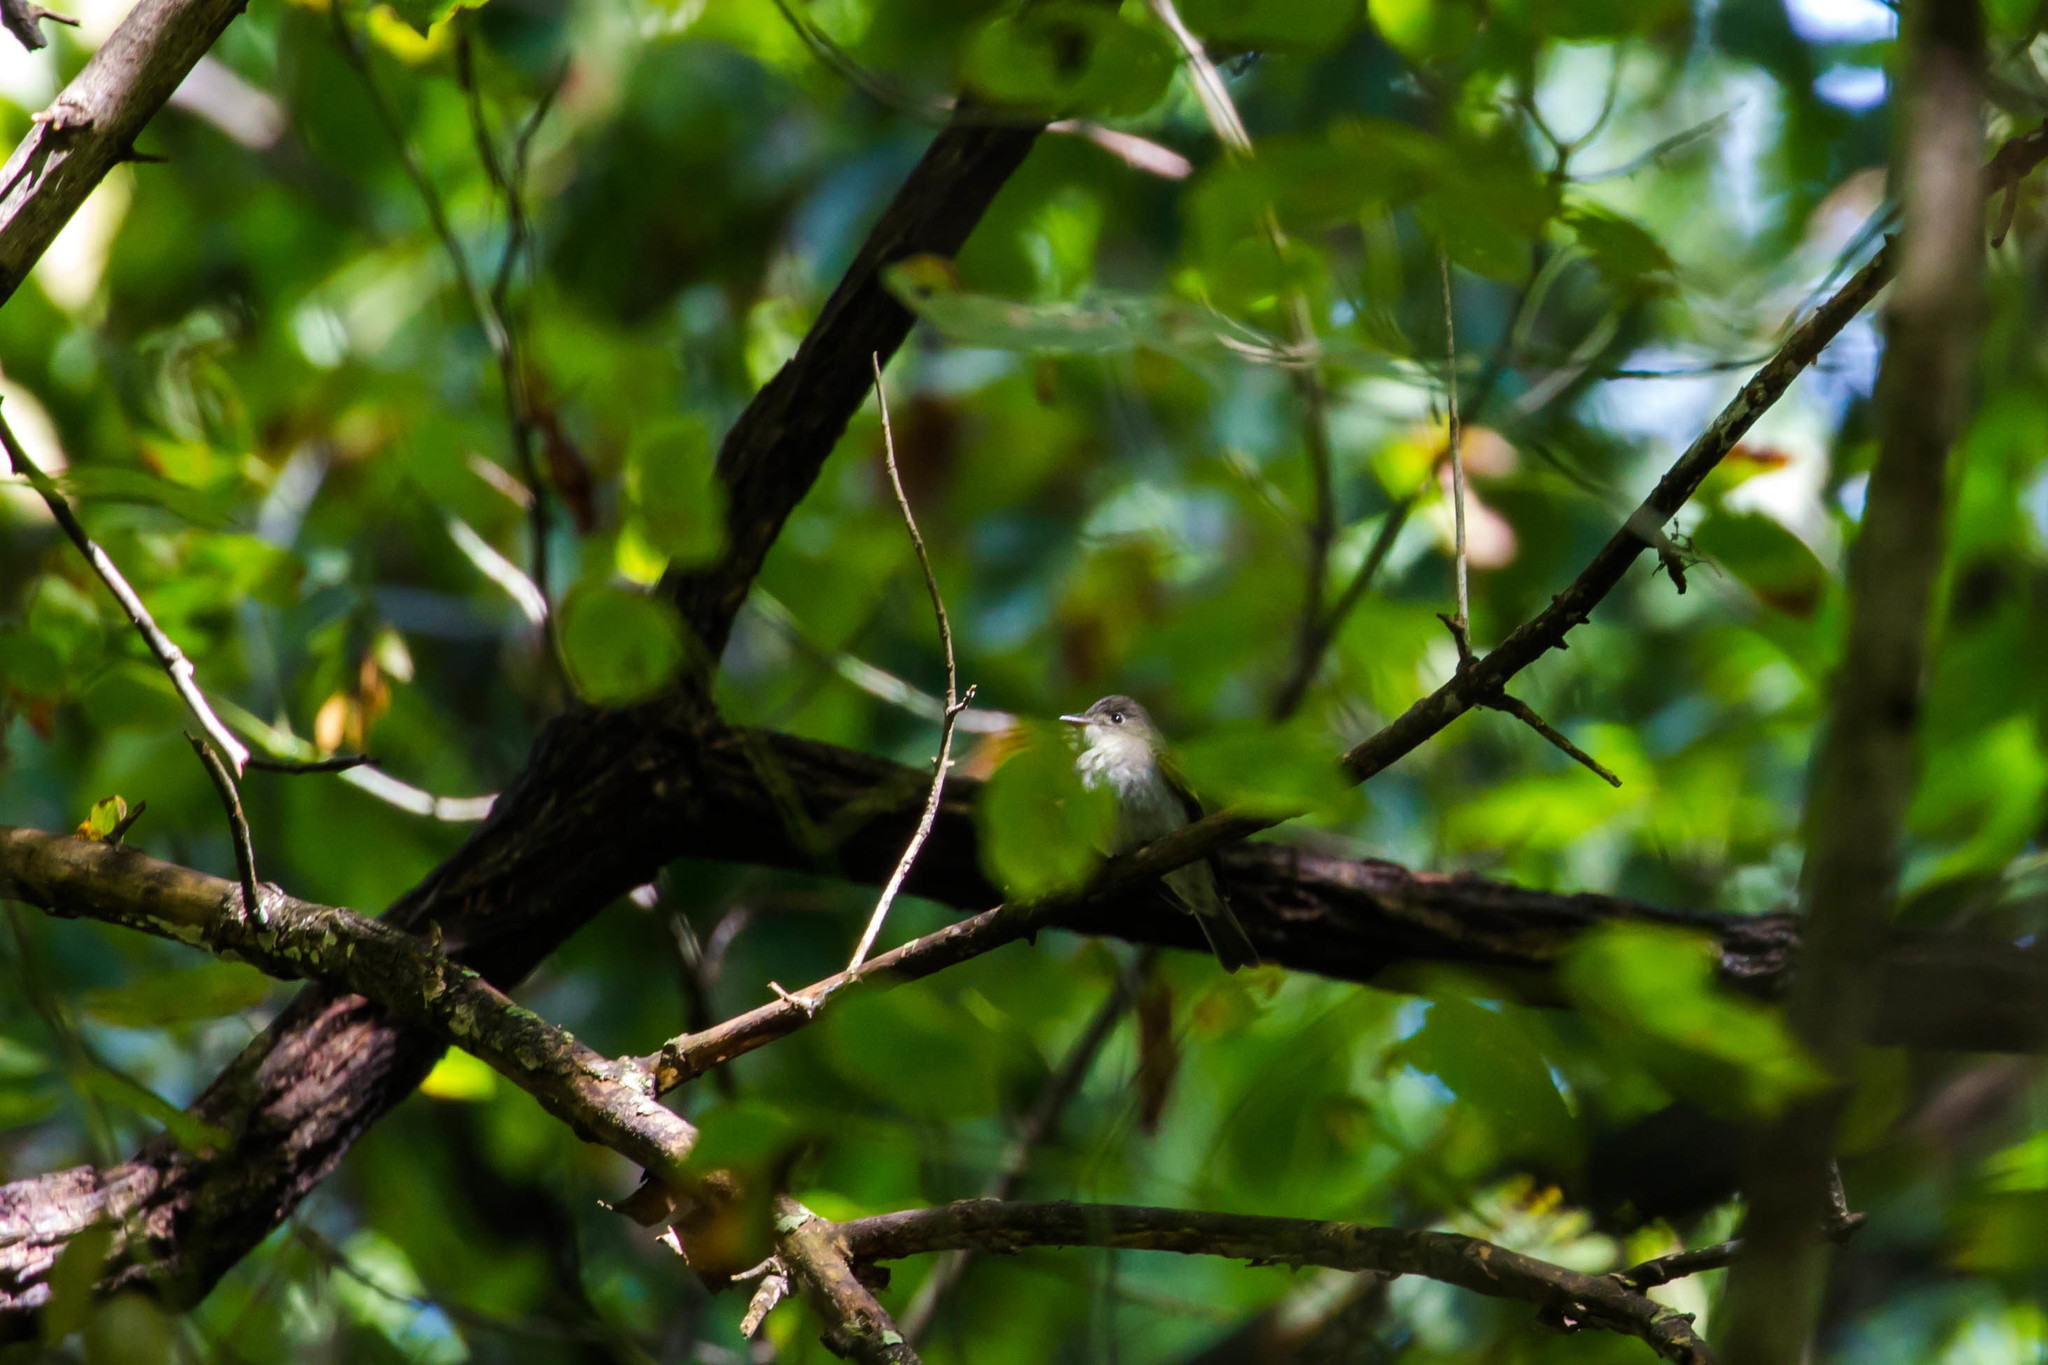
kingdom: Animalia
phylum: Chordata
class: Aves
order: Passeriformes
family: Tyrannidae
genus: Contopus
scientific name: Contopus virens
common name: Eastern wood-pewee
